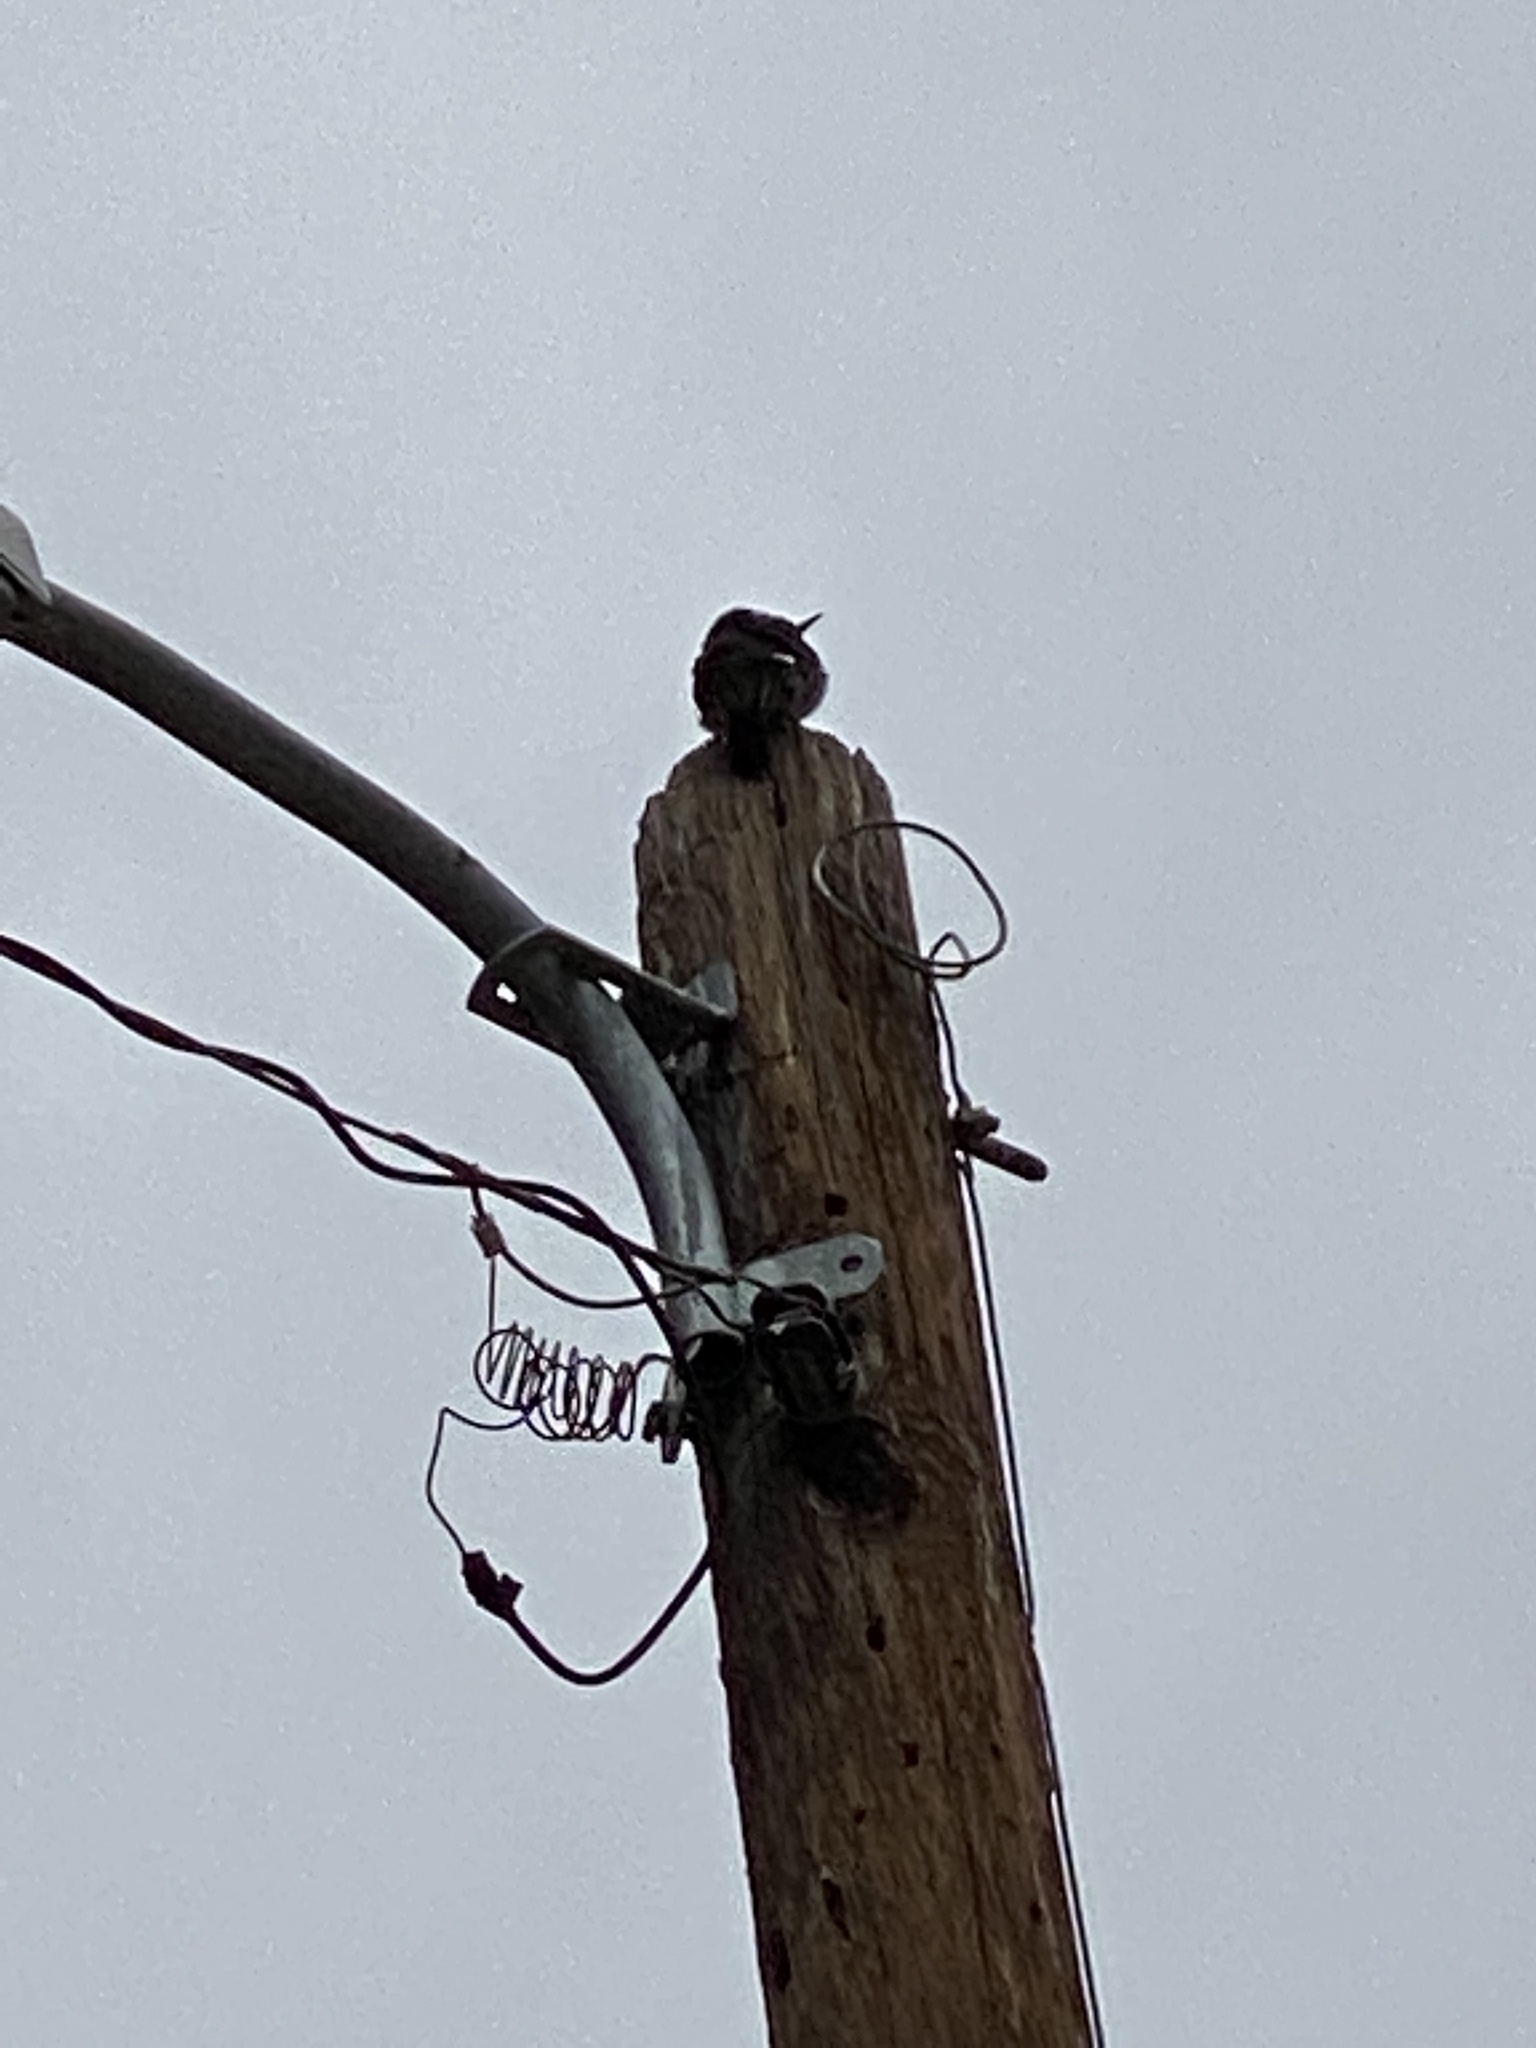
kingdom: Animalia
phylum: Chordata
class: Aves
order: Piciformes
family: Picidae
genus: Melanerpes
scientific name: Melanerpes formicivorus
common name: Acorn woodpecker
